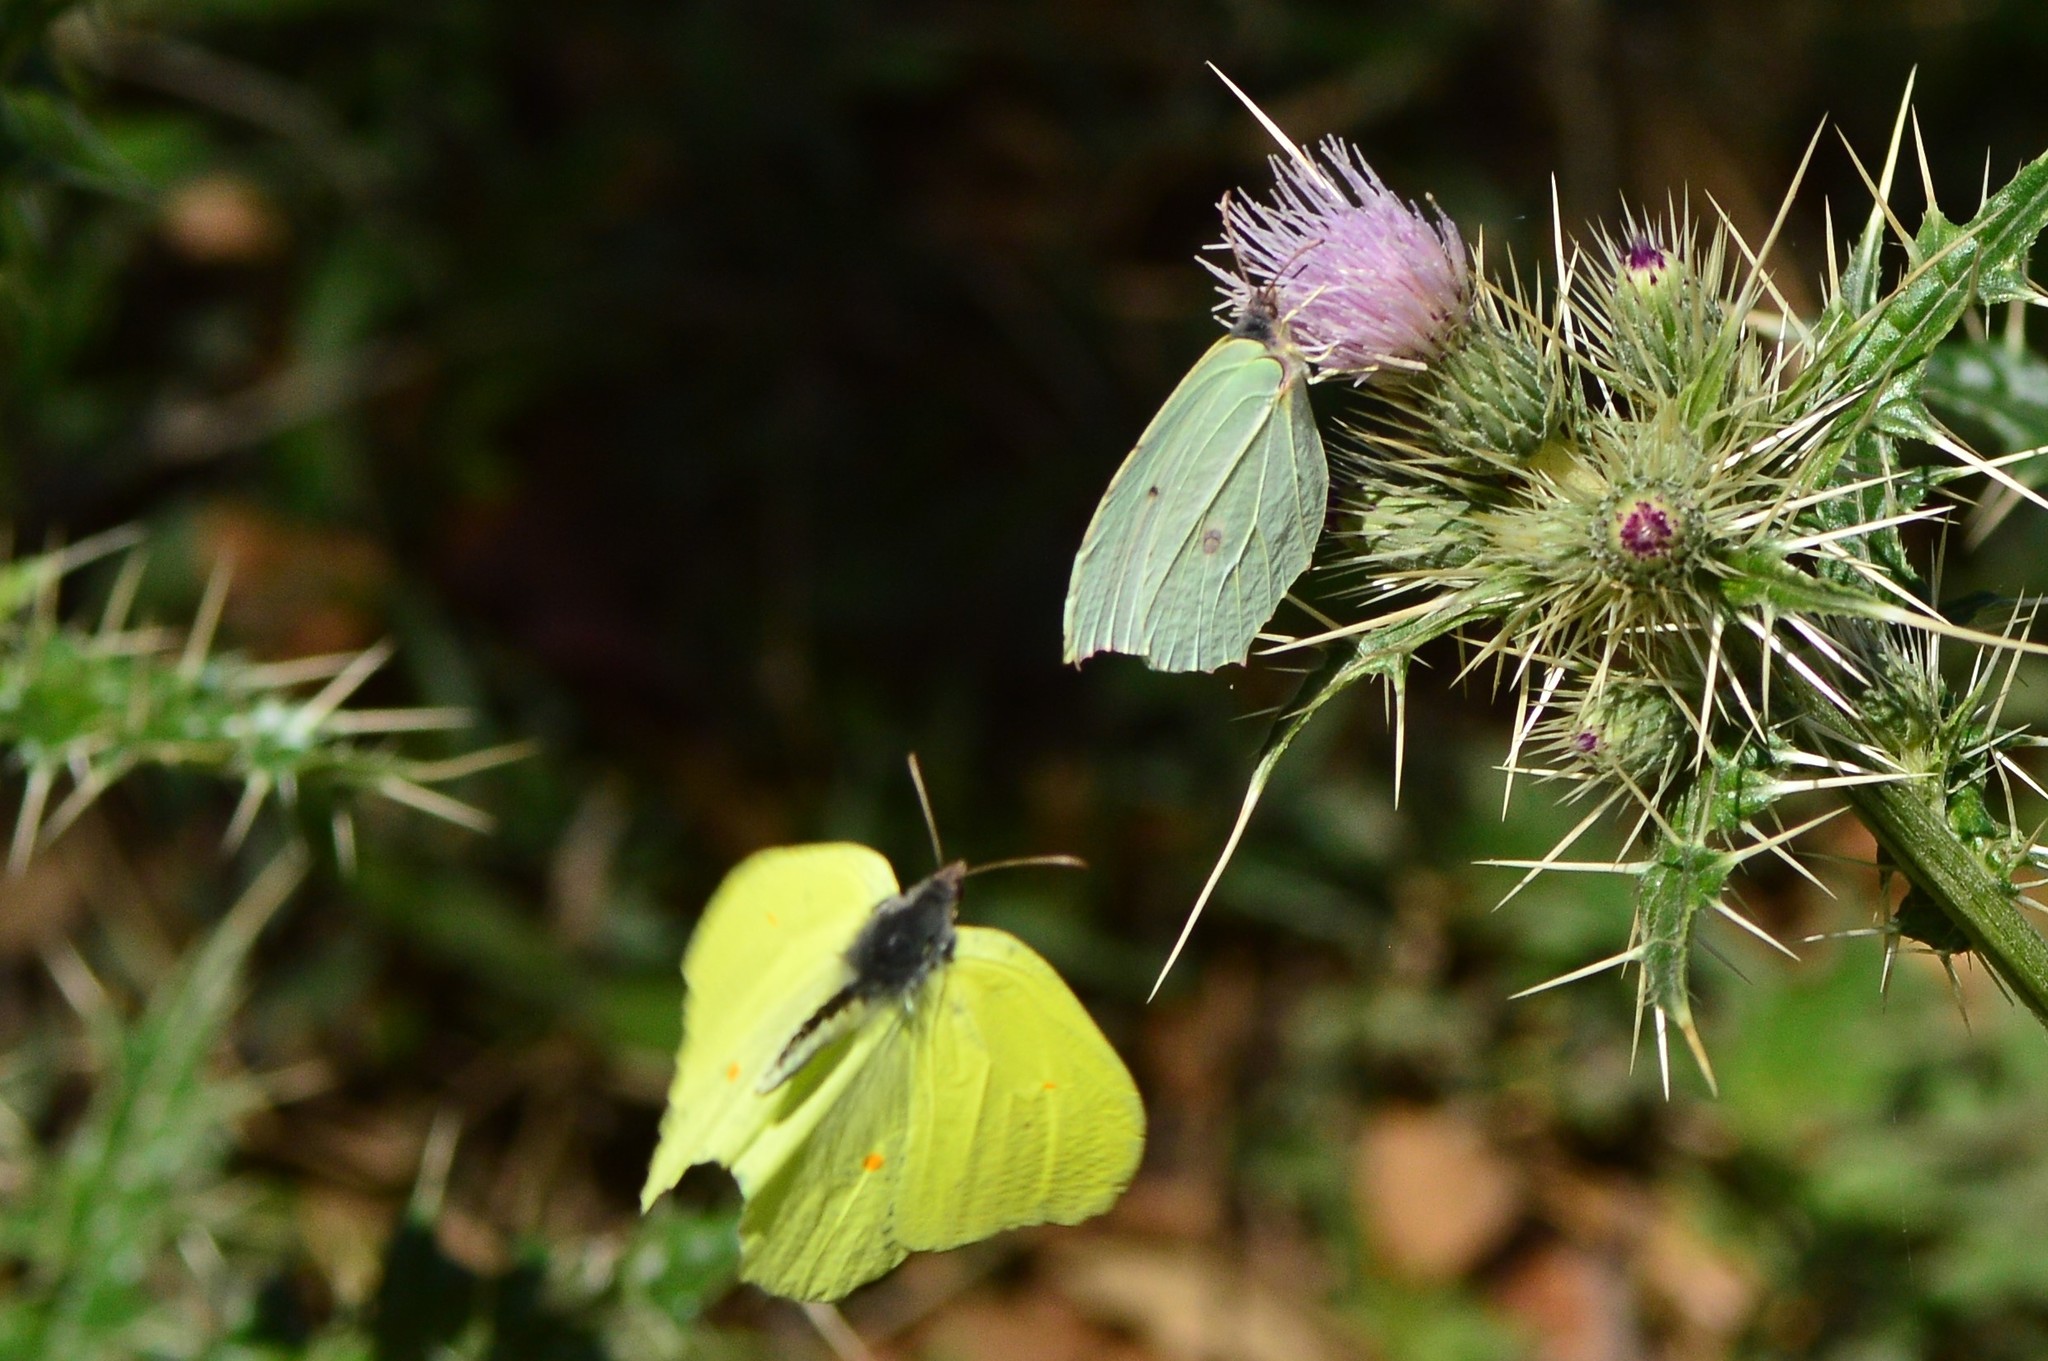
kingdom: Animalia
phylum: Arthropoda
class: Insecta
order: Lepidoptera
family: Pieridae
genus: Gonepteryx
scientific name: Gonepteryx
